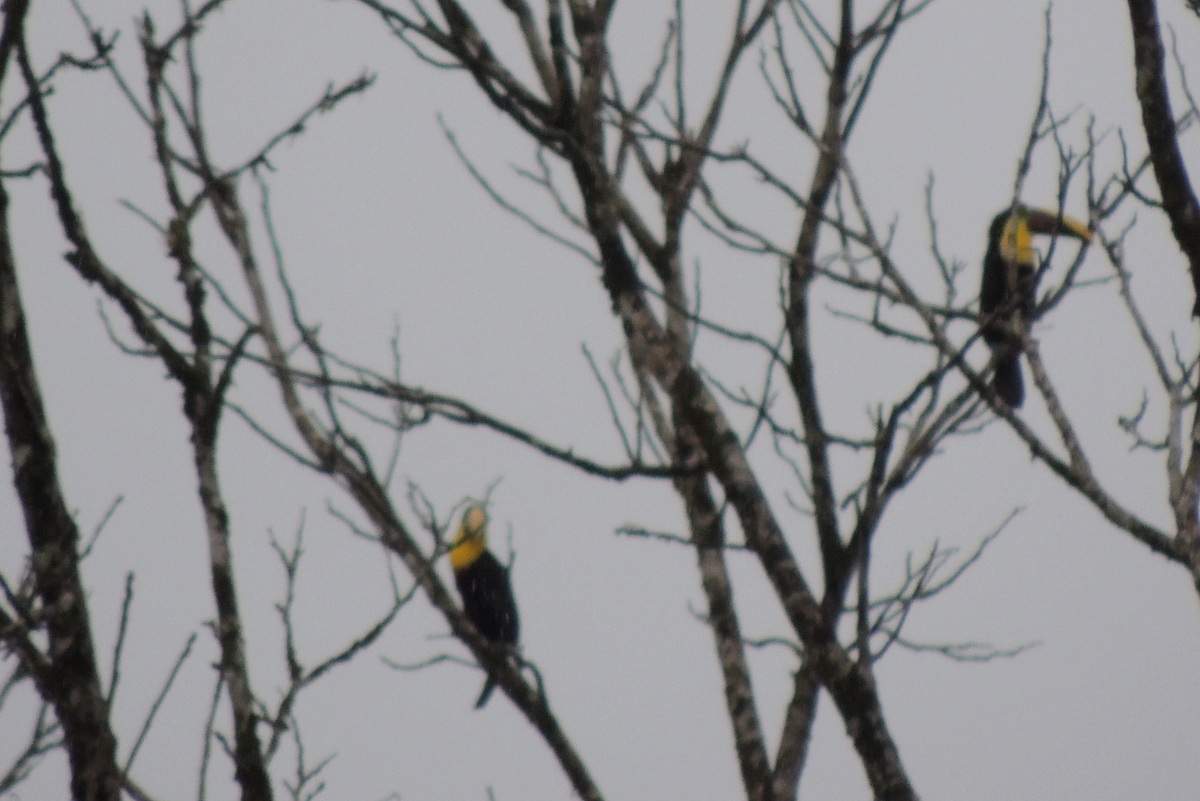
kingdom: Animalia
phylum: Chordata
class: Aves
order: Piciformes
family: Ramphastidae
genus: Ramphastos
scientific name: Ramphastos ambiguus
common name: Yellow-throated toucan
